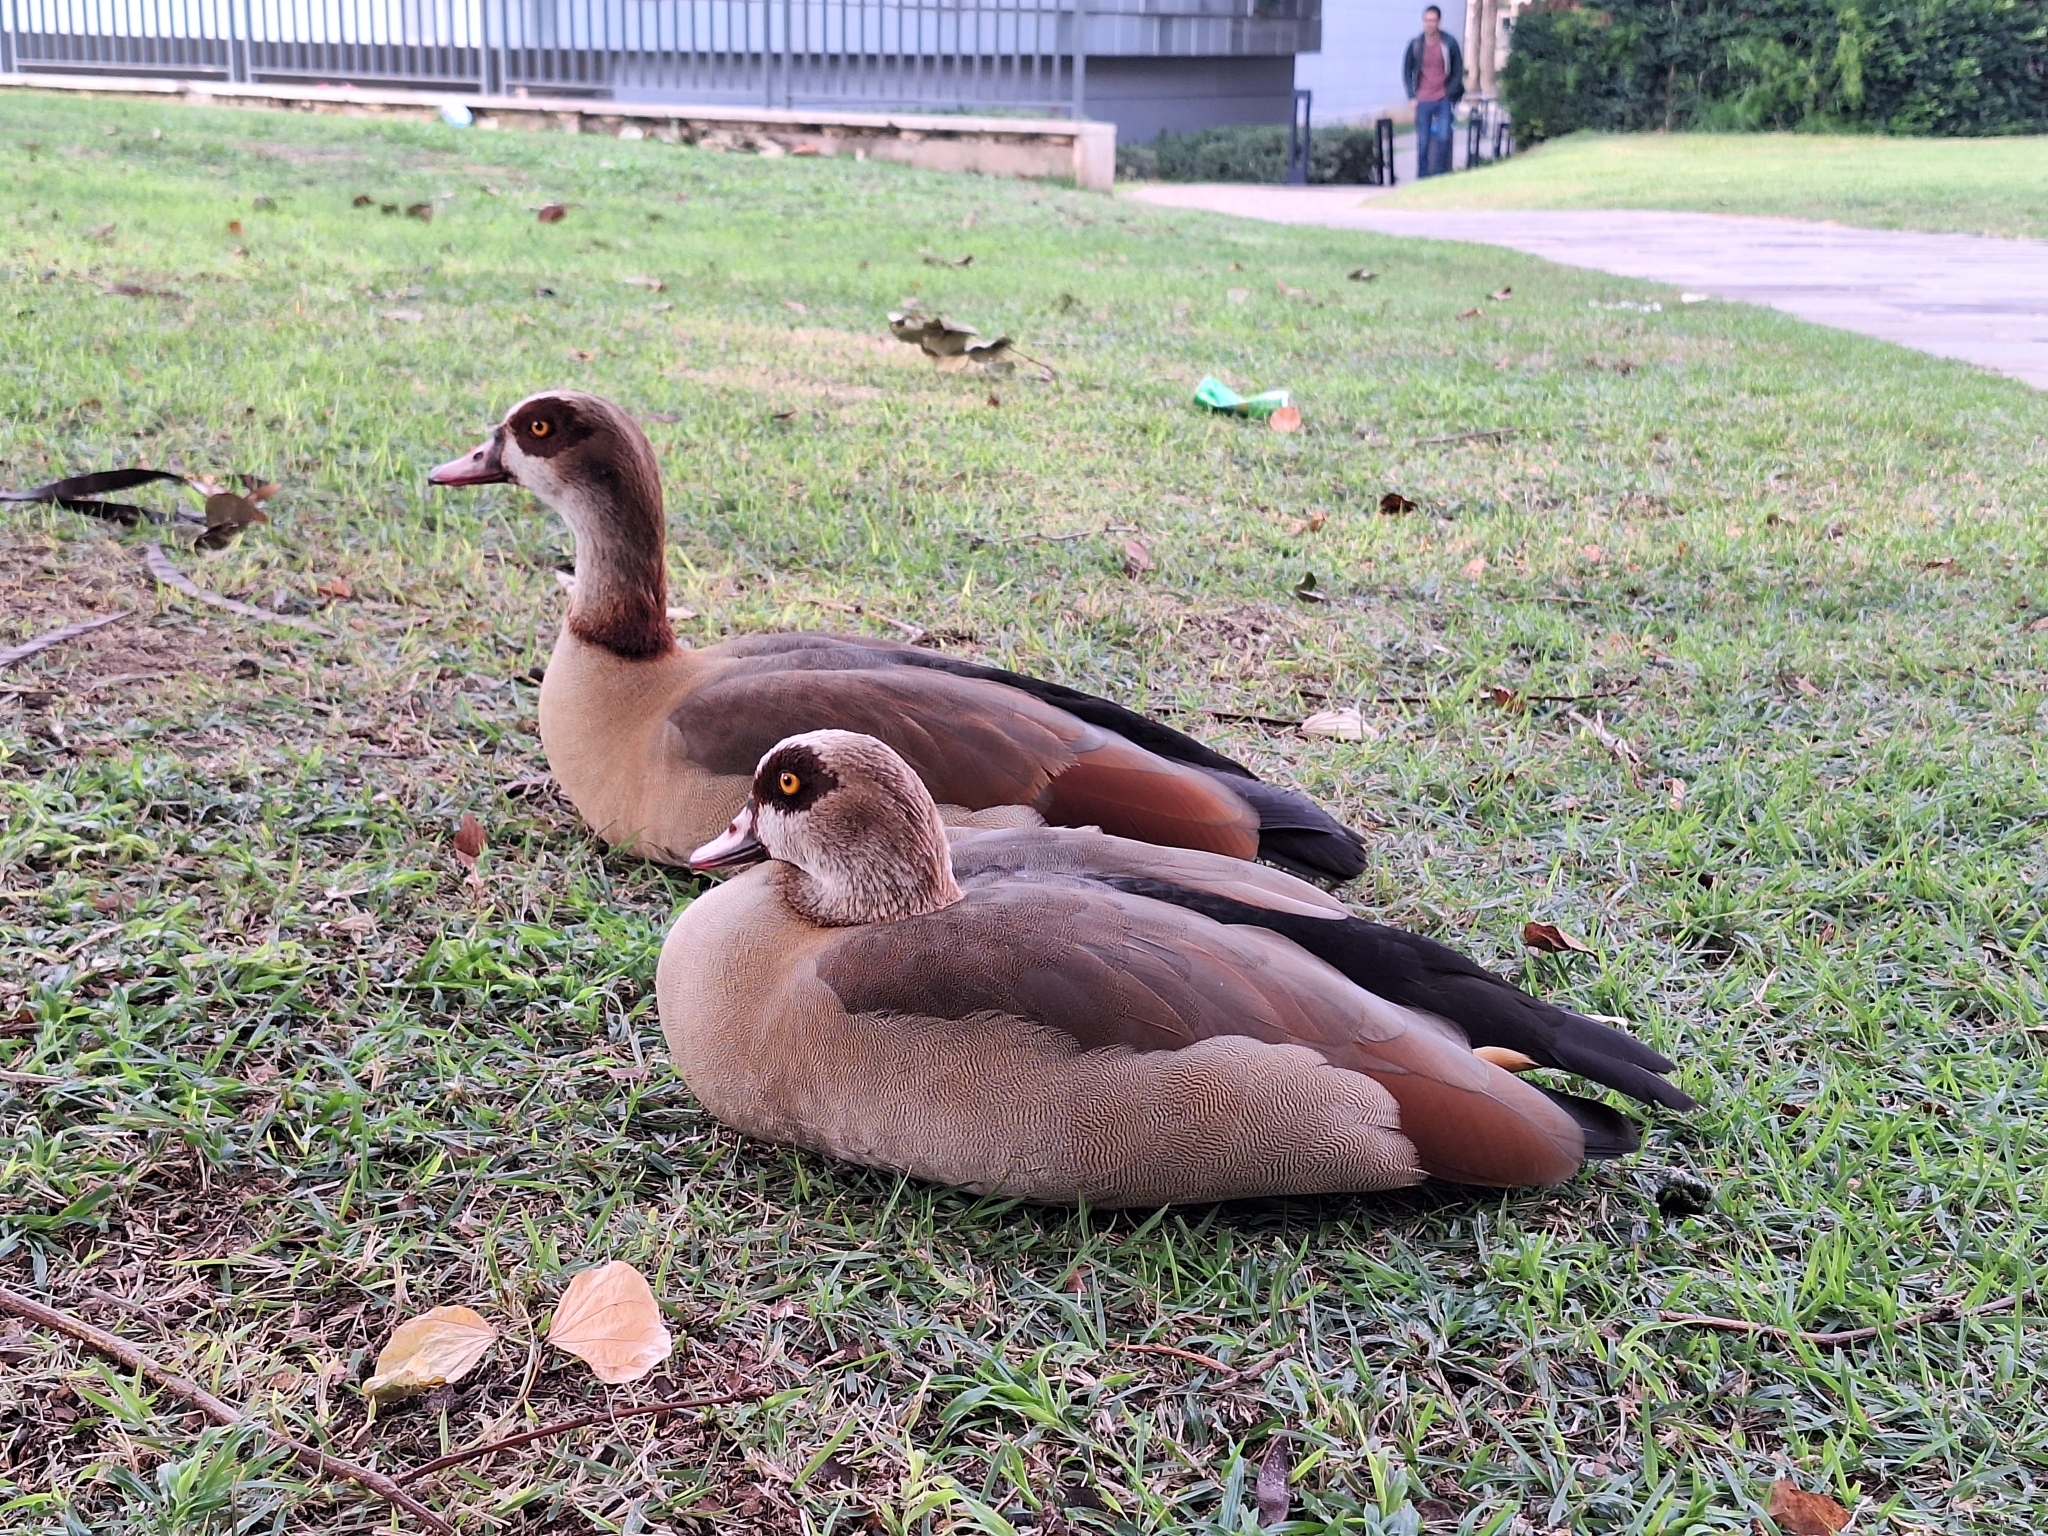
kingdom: Animalia
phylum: Chordata
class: Aves
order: Anseriformes
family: Anatidae
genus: Alopochen
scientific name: Alopochen aegyptiaca
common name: Egyptian goose
